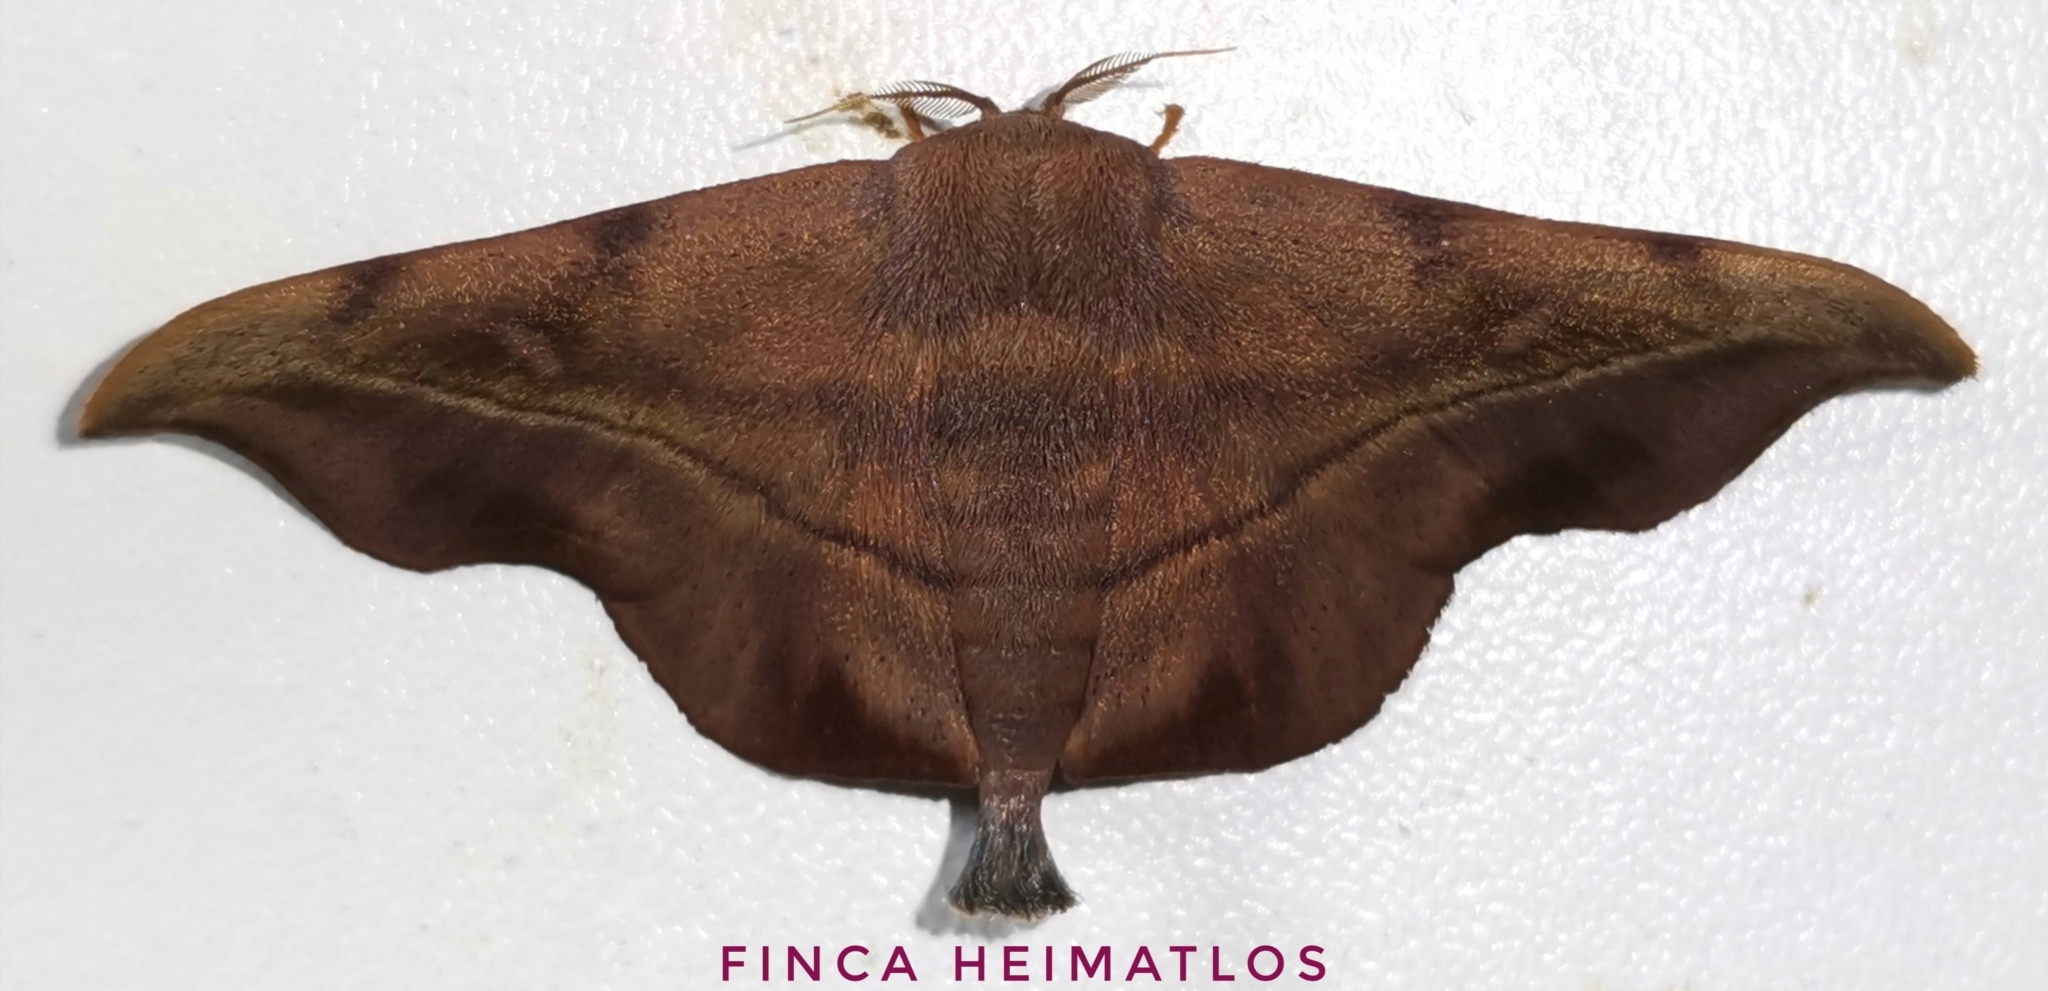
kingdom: Animalia
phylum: Arthropoda
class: Insecta
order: Lepidoptera
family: Mimallonidae
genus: Thaelia
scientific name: Thaelia subrubiginosa
